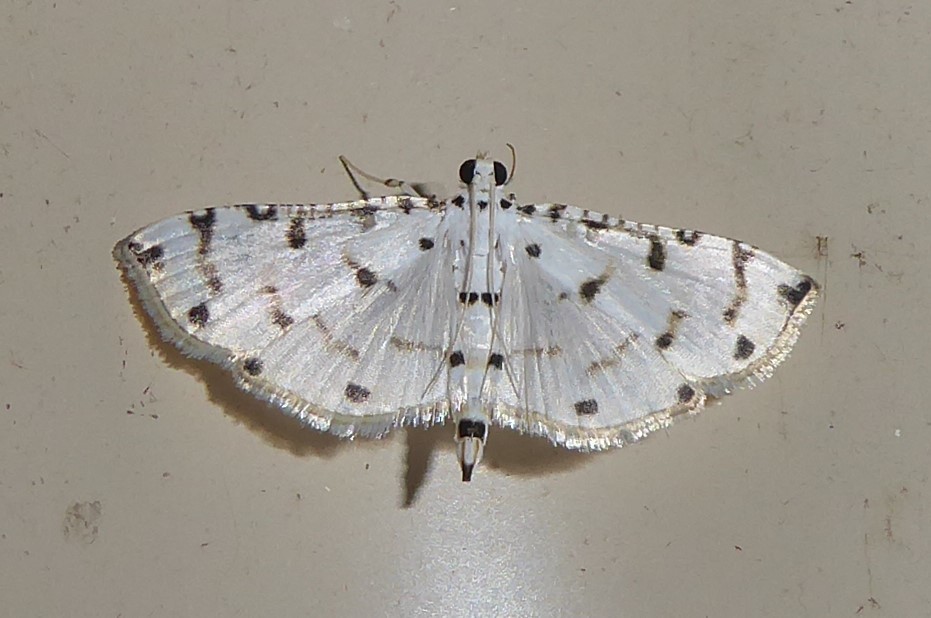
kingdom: Animalia
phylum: Arthropoda
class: Insecta
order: Lepidoptera
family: Crambidae
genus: Pycnarmon
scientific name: Pycnarmon meritalis
